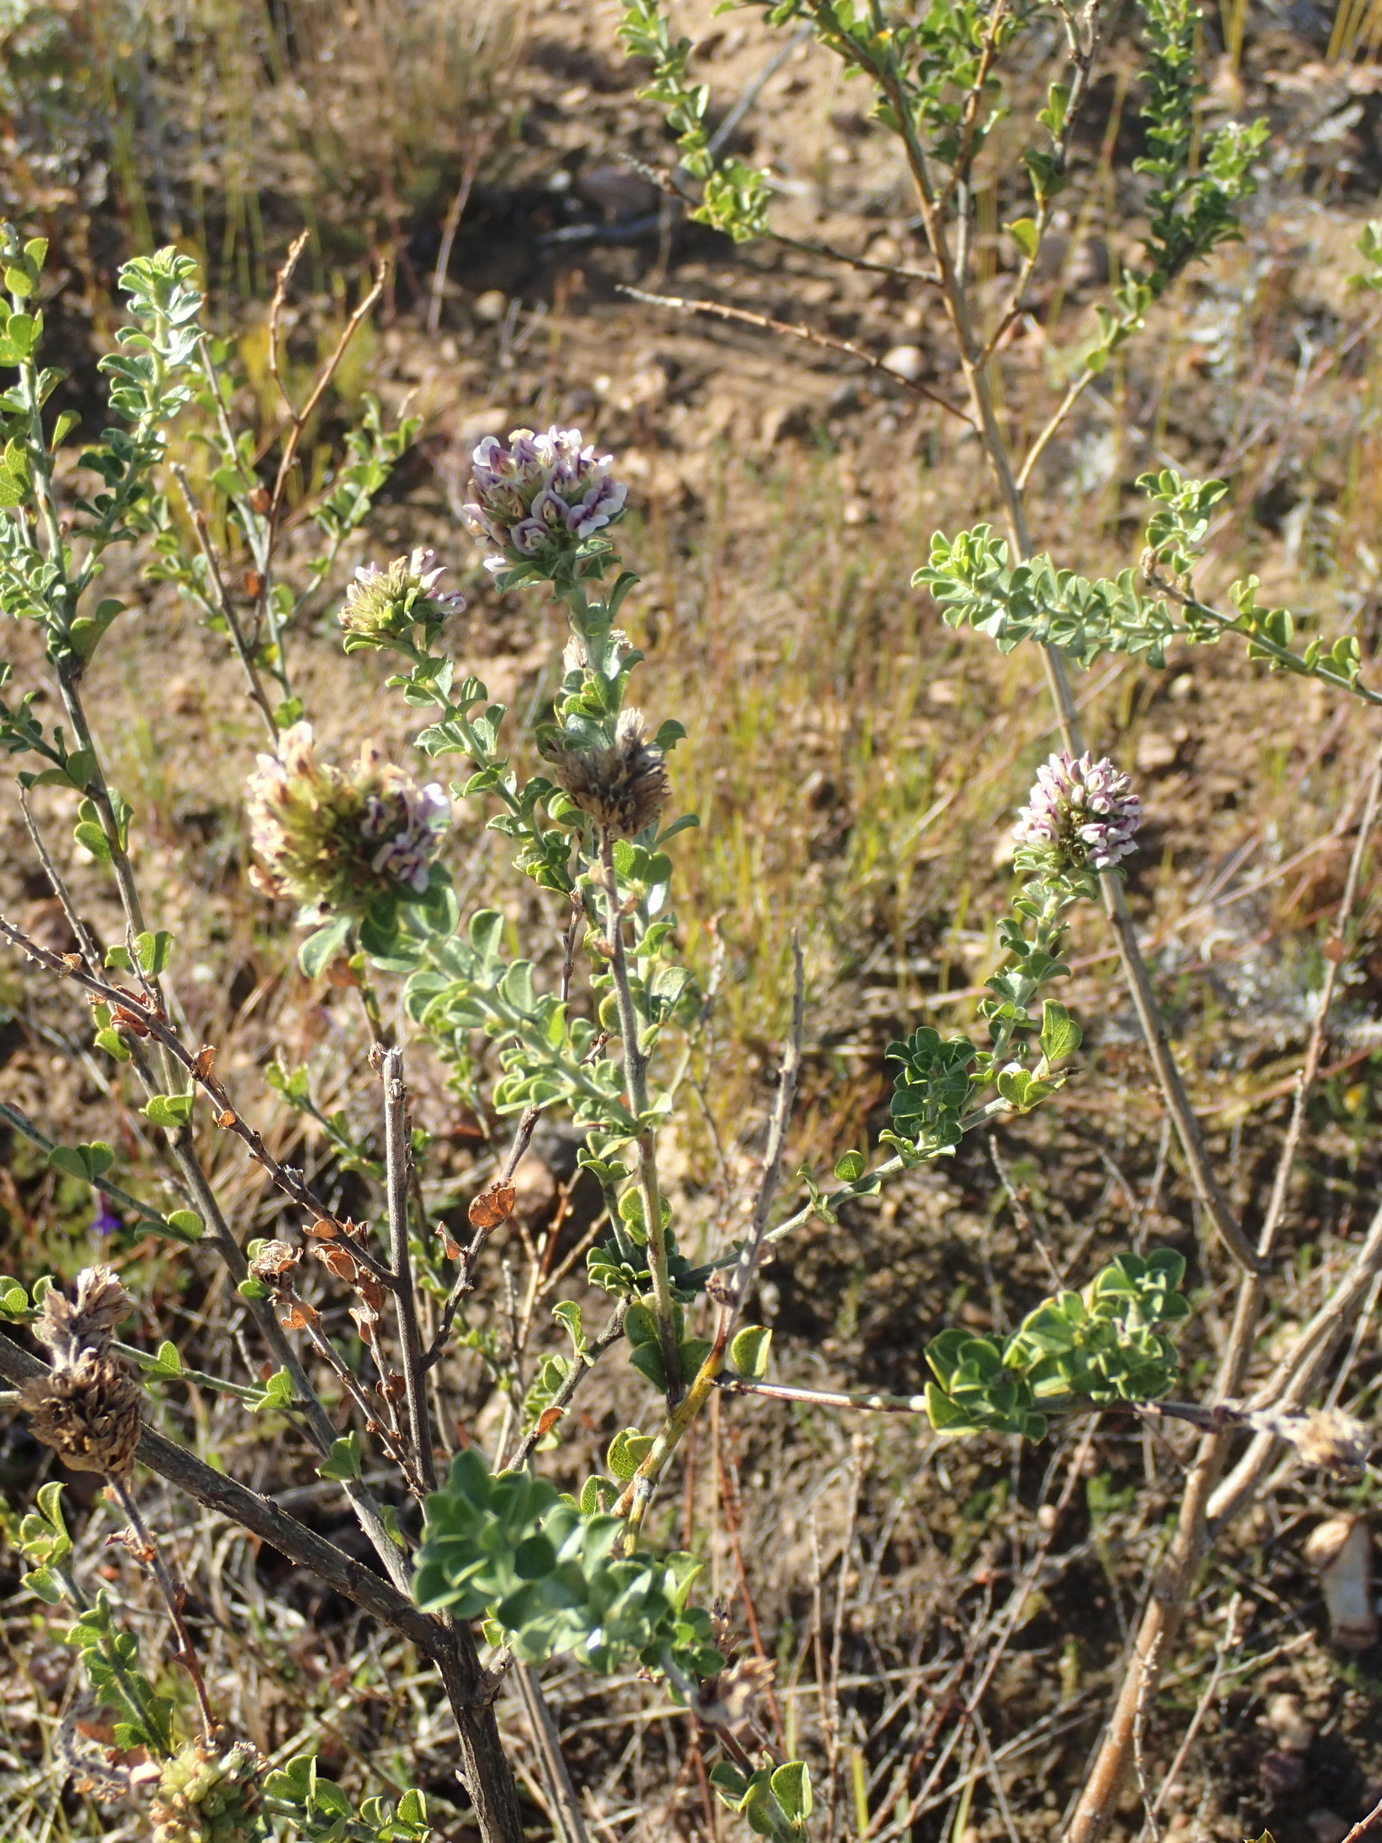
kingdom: Plantae
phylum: Tracheophyta
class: Magnoliopsida
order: Fabales
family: Fabaceae
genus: Psoralea
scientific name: Psoralea stachyera
